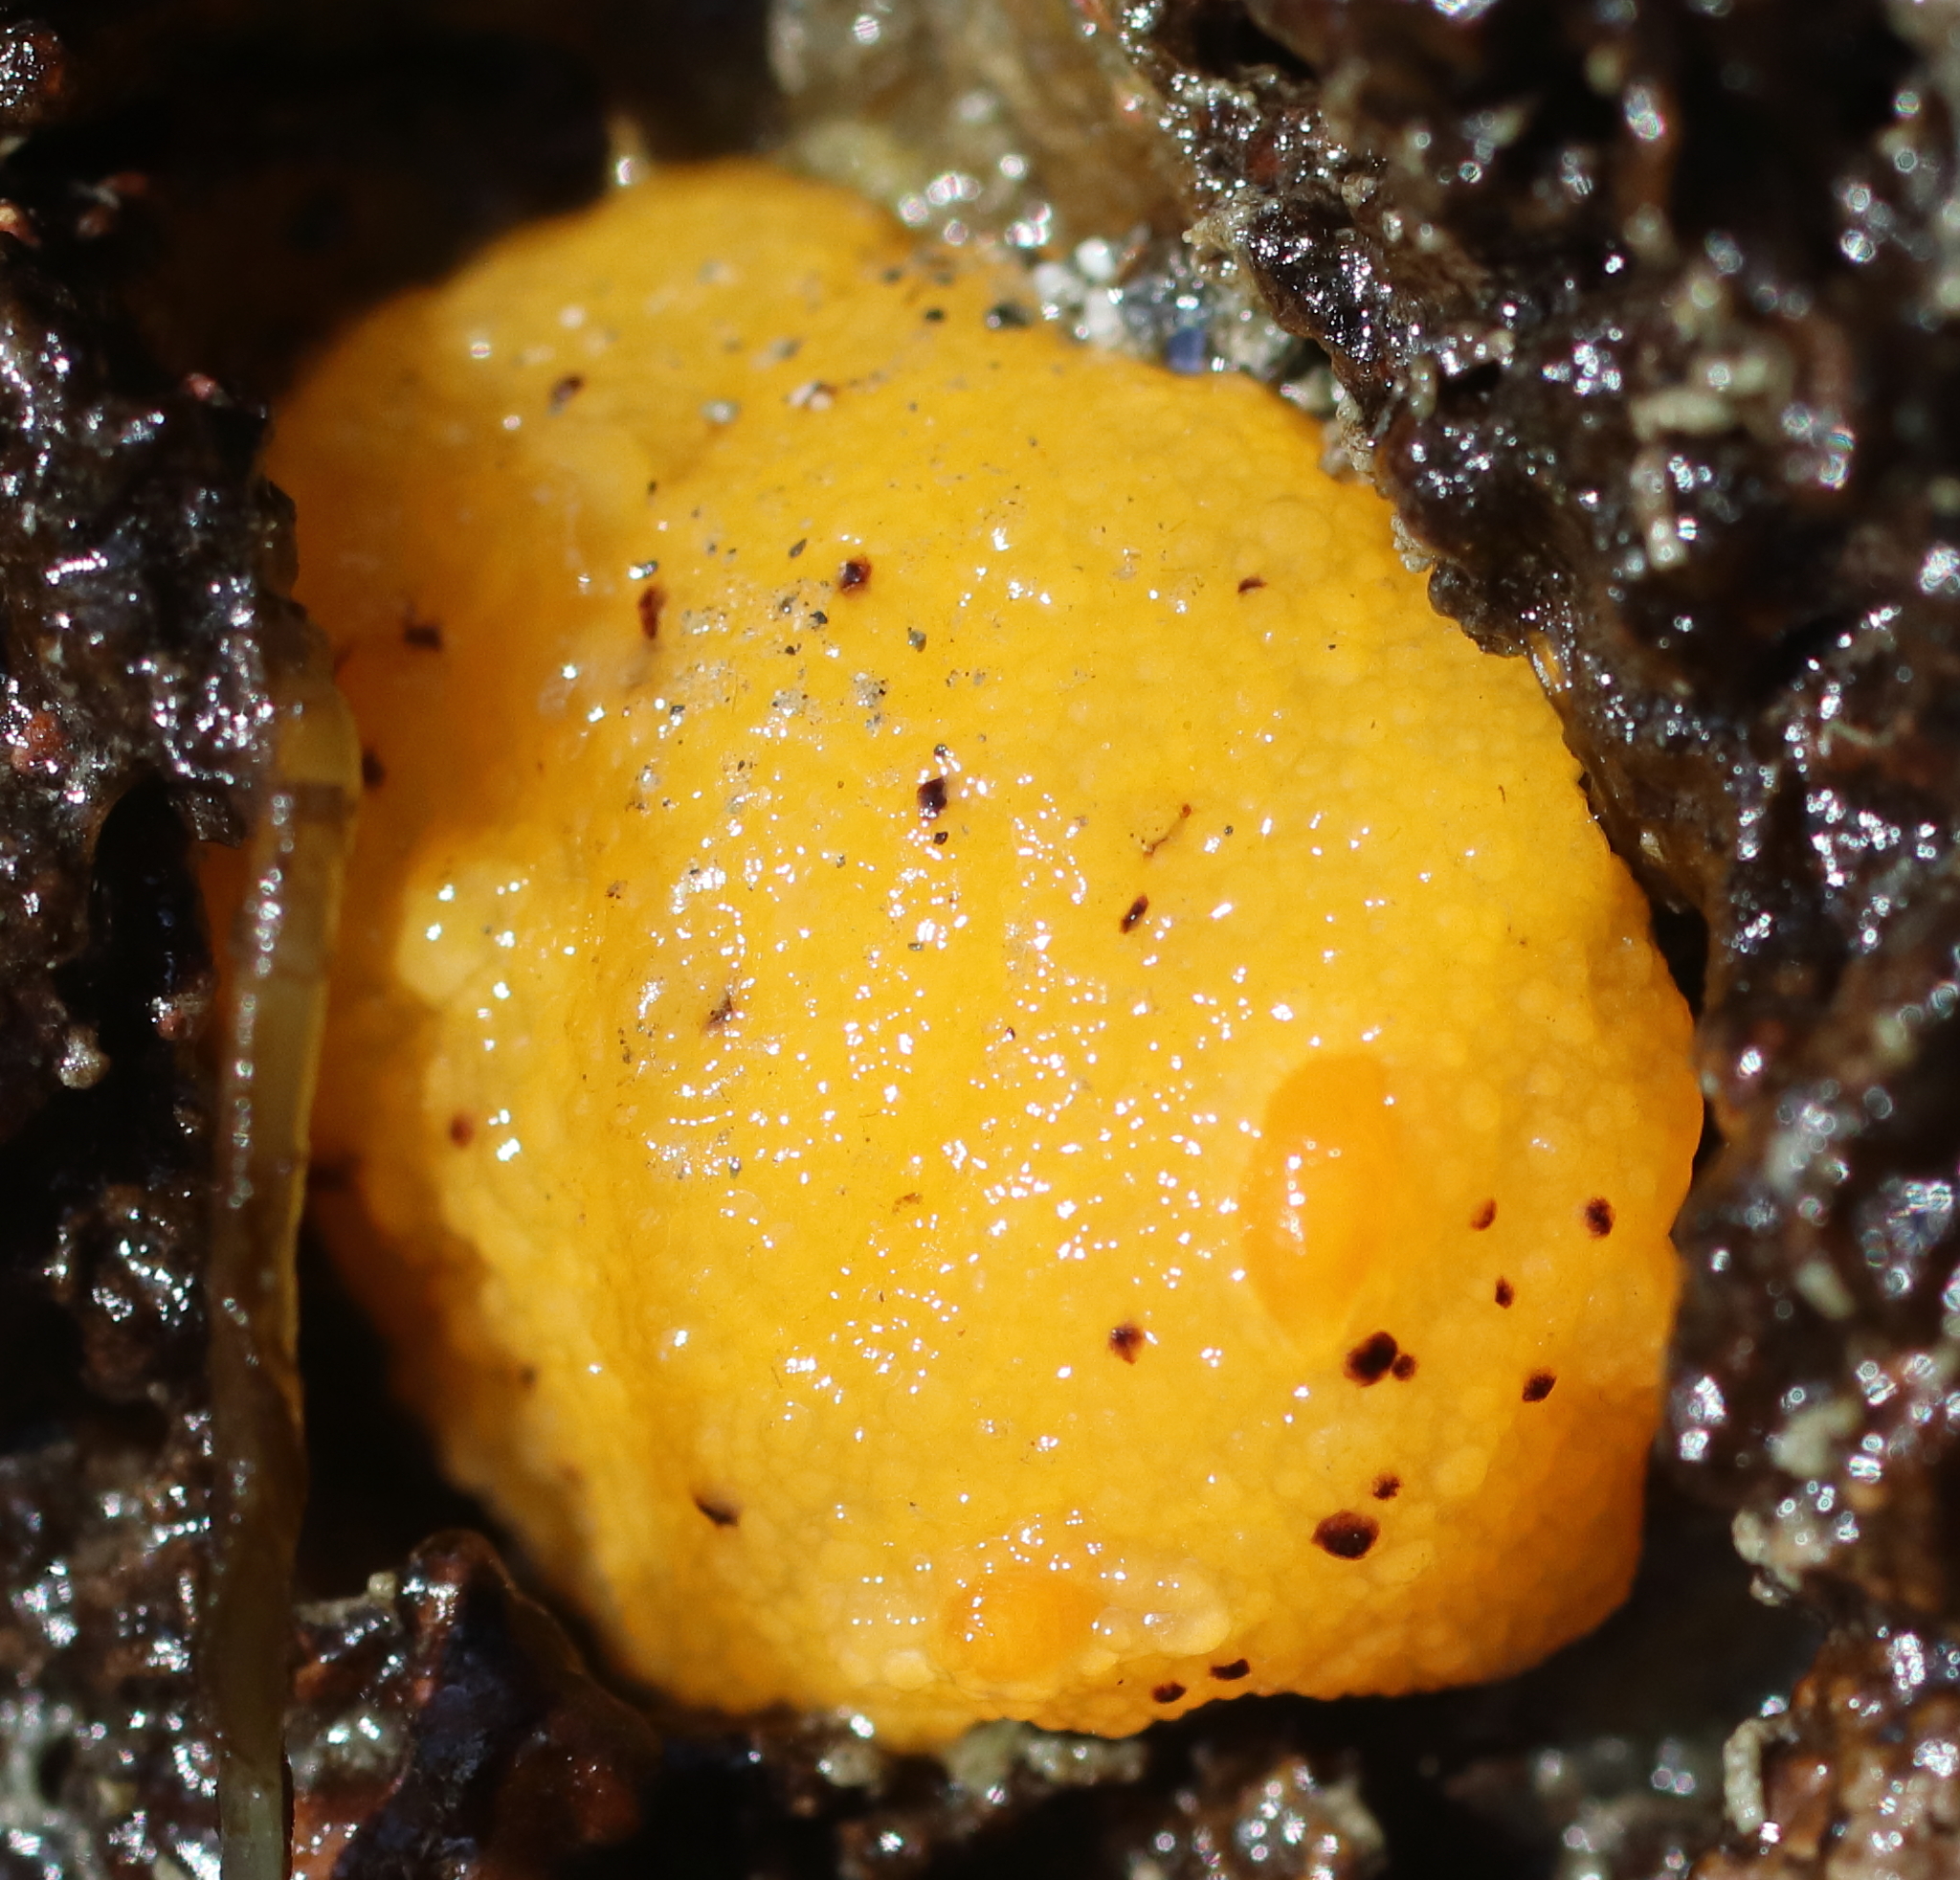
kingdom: Animalia
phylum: Mollusca
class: Gastropoda
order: Nudibranchia
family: Dorididae
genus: Doris
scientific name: Doris montereyensis
